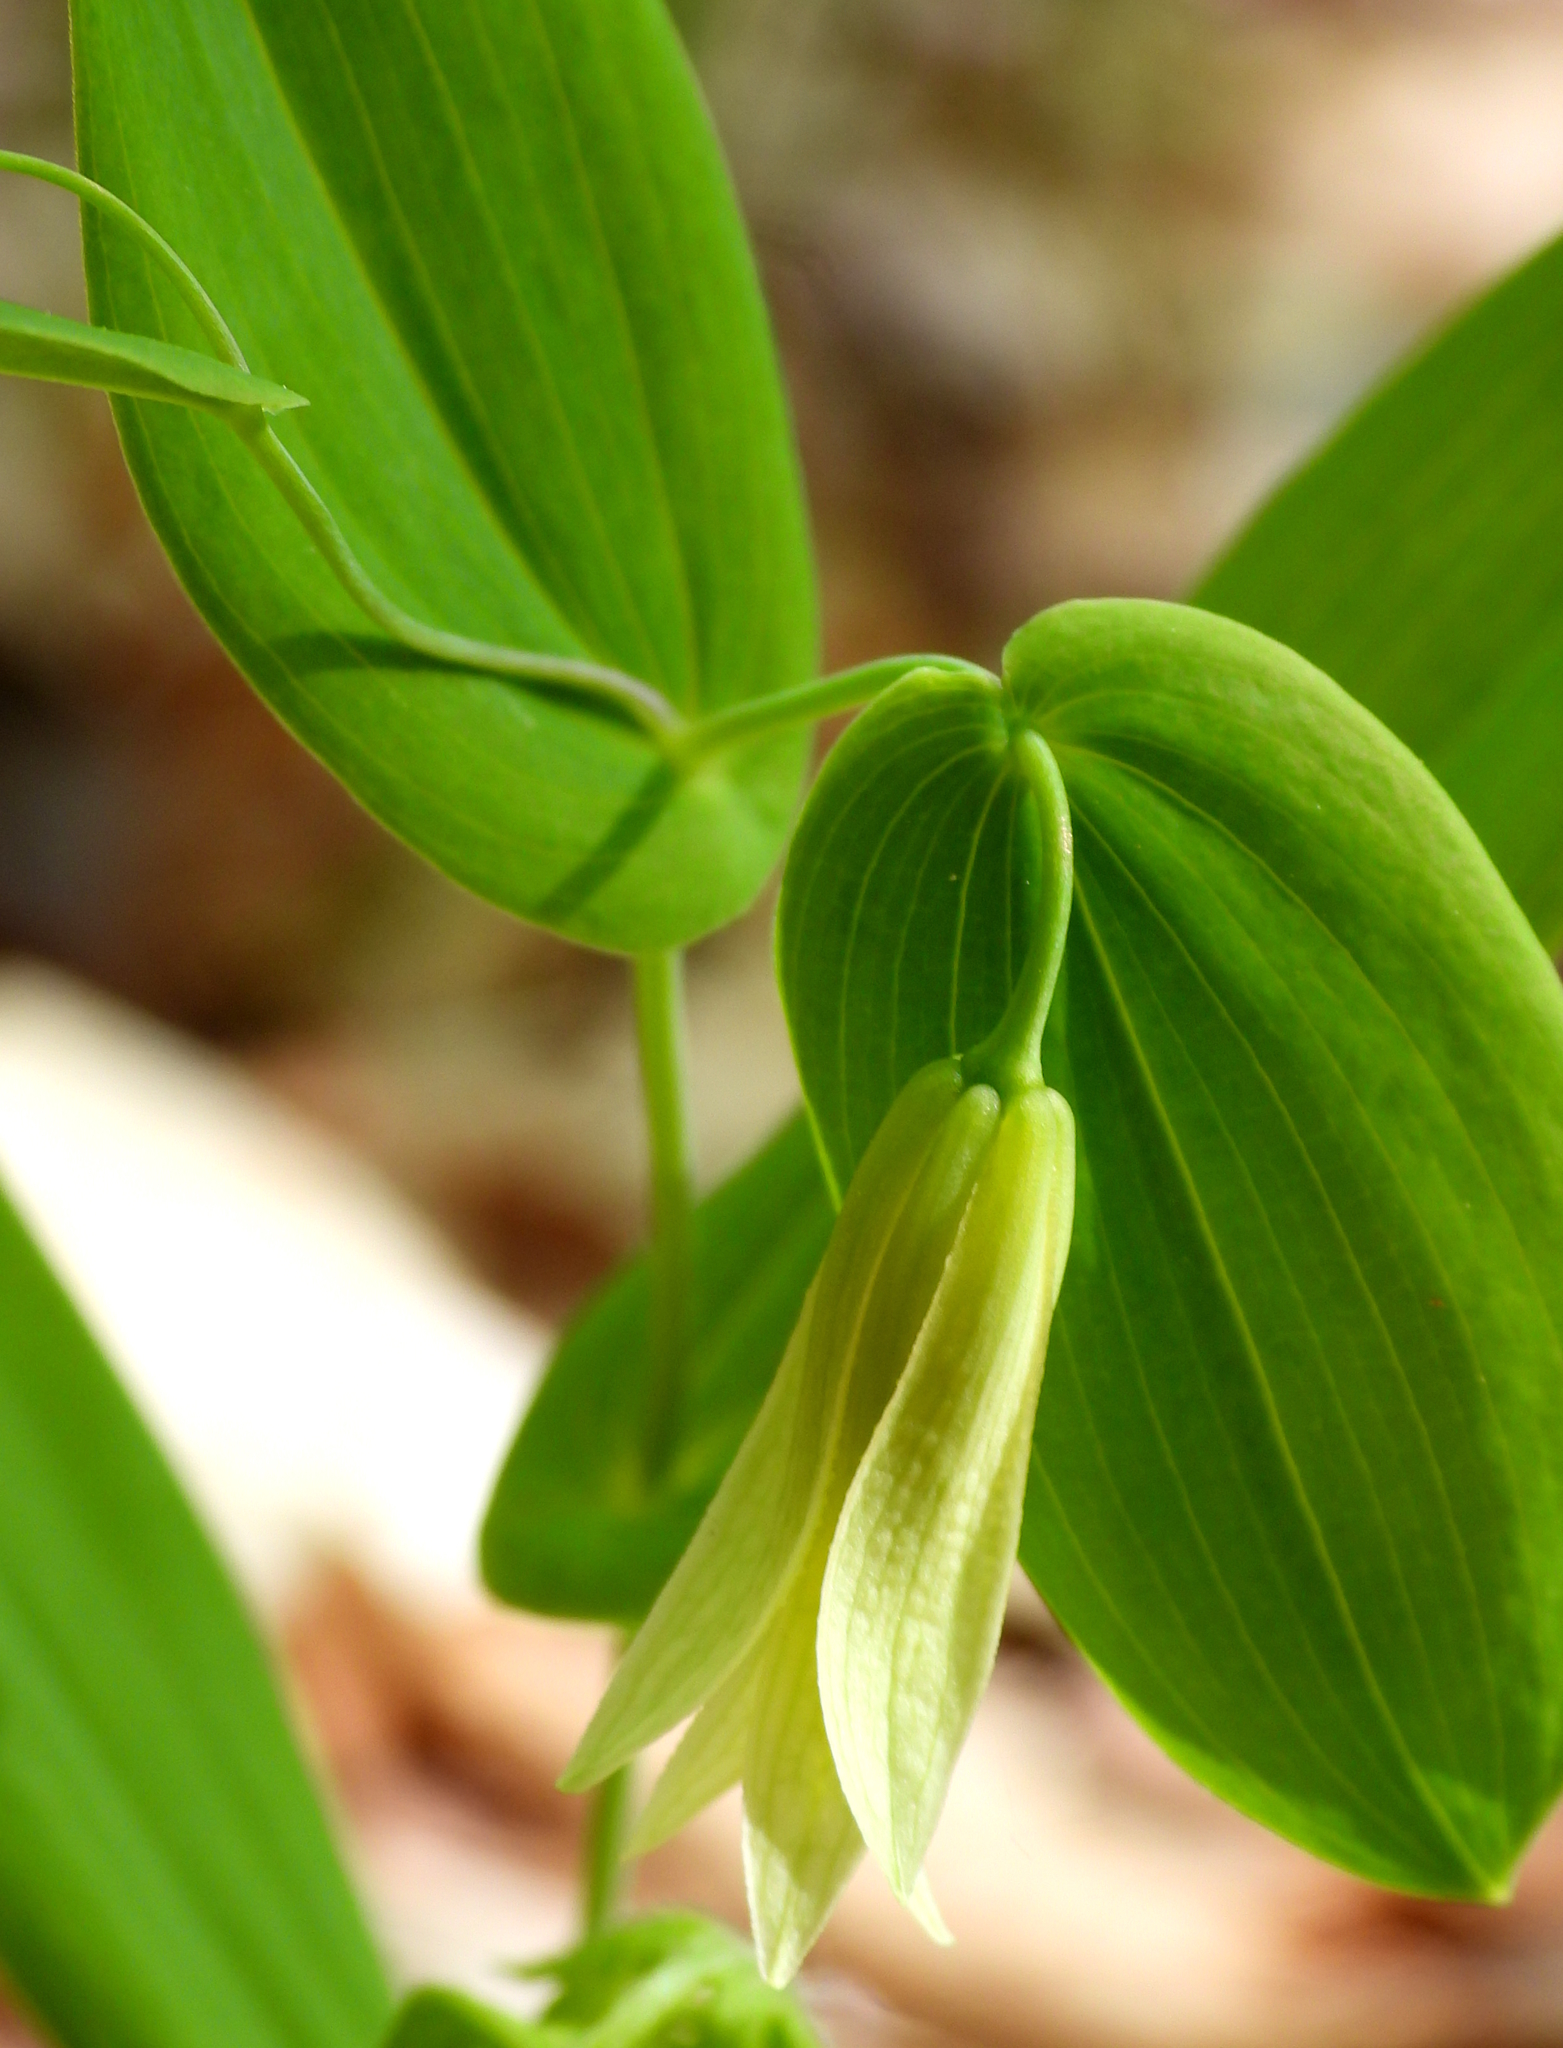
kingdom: Plantae
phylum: Tracheophyta
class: Liliopsida
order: Liliales
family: Colchicaceae
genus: Uvularia
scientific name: Uvularia perfoliata
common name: Perfoliate bellwort
